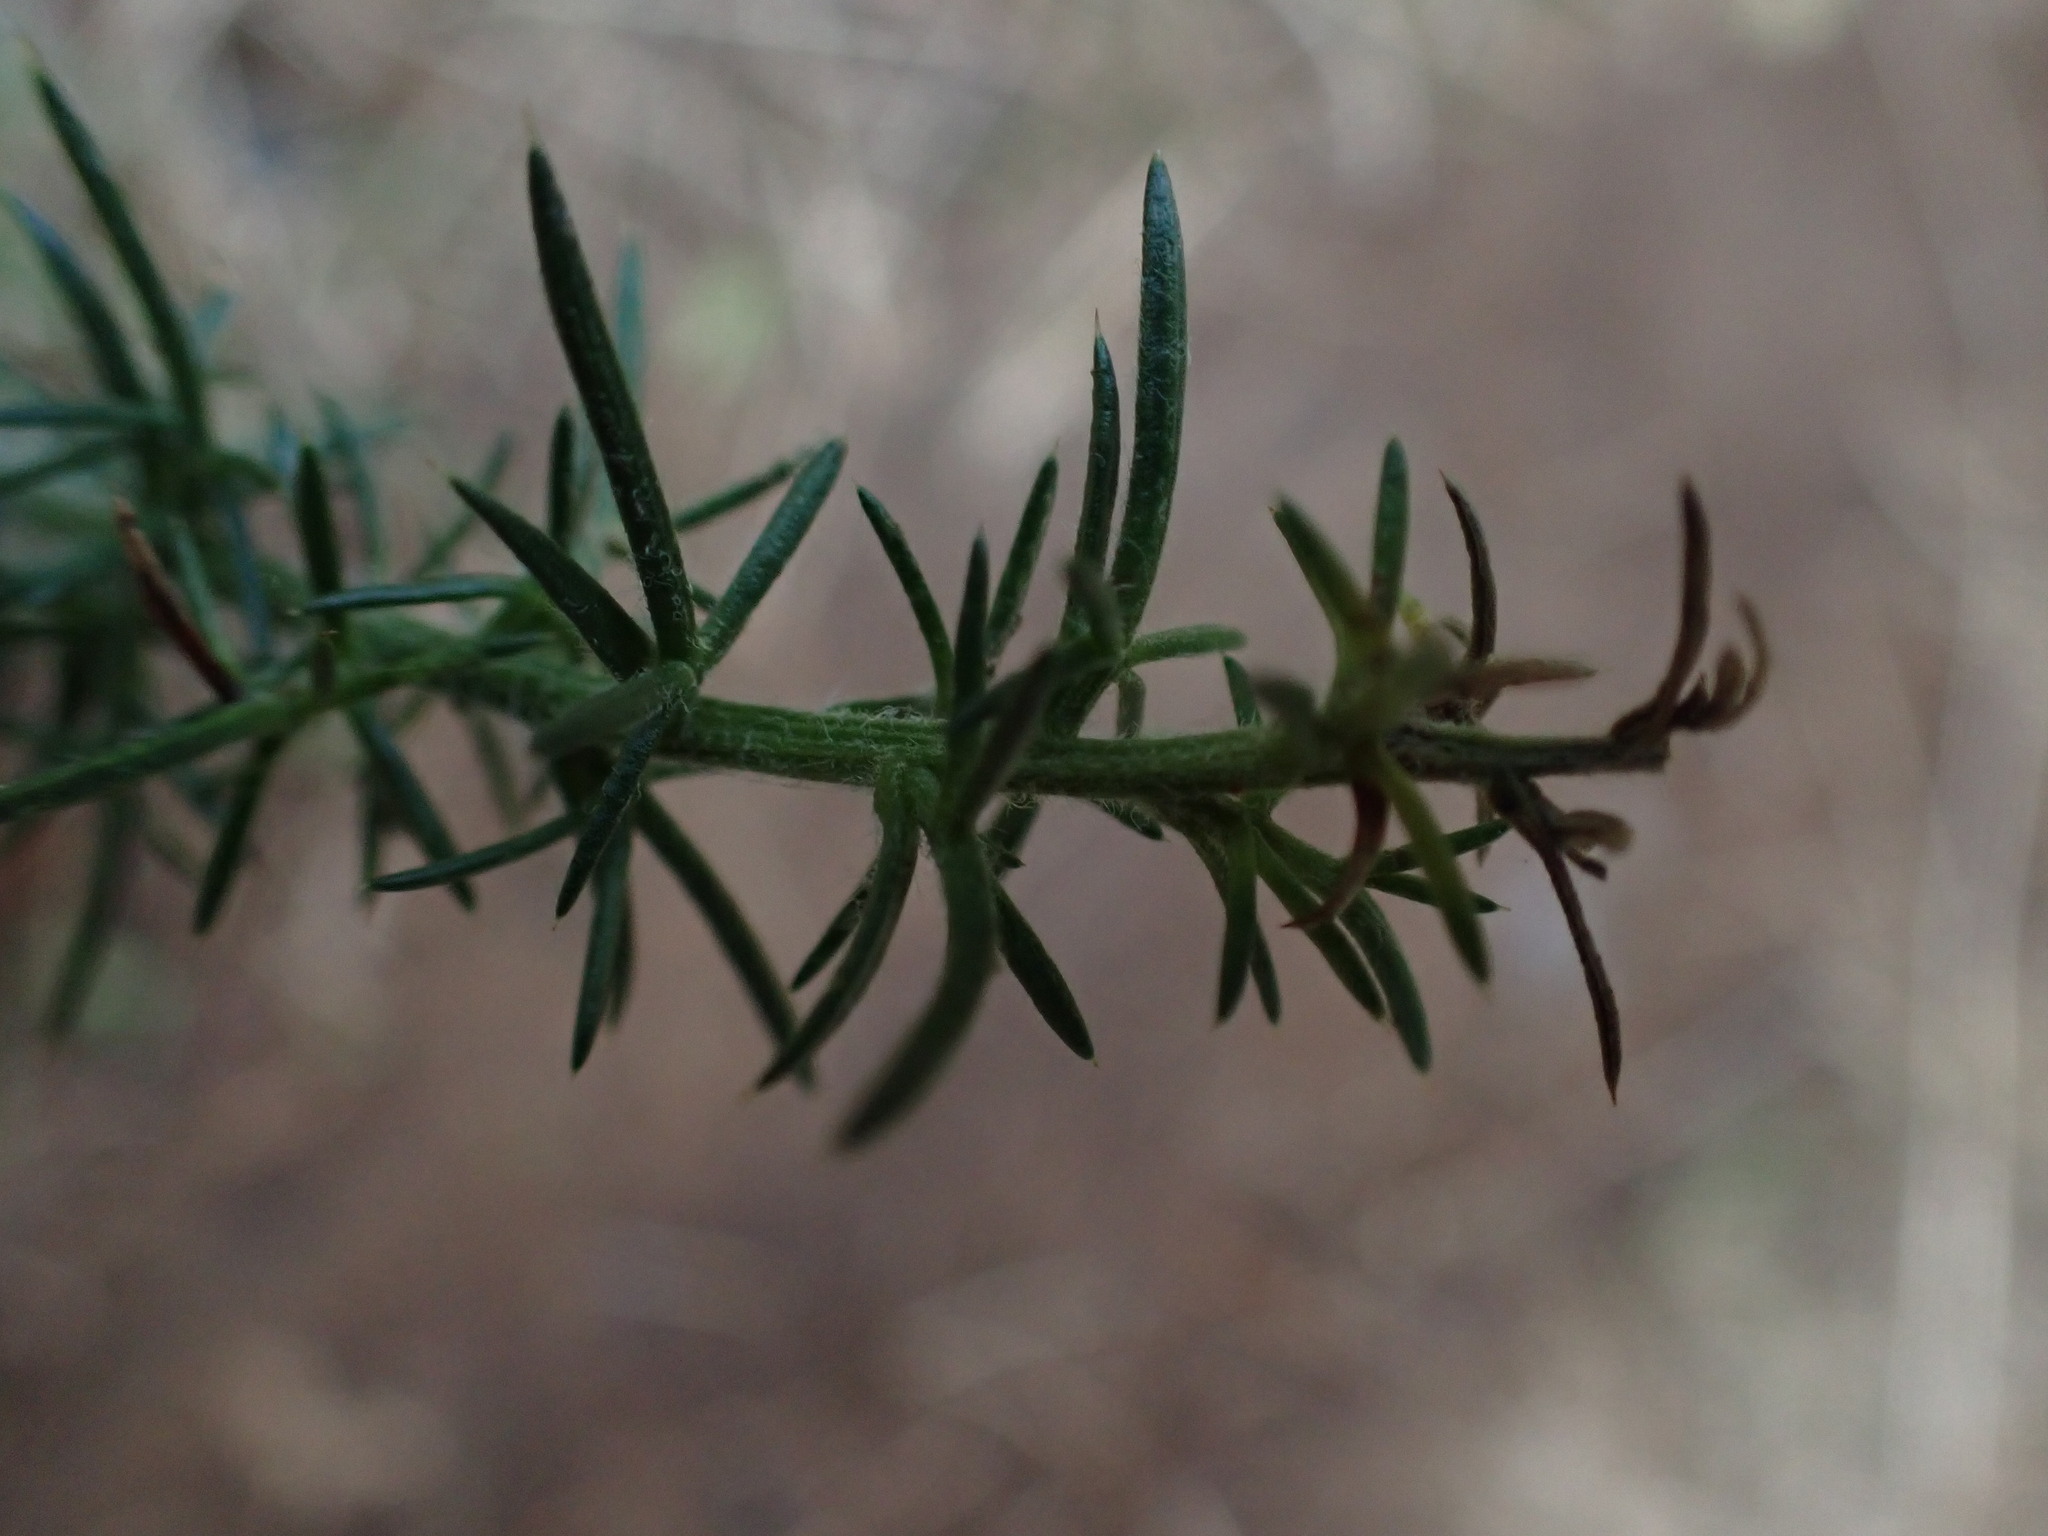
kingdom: Plantae
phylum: Tracheophyta
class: Magnoliopsida
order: Fabales
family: Fabaceae
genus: Ulex
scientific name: Ulex europaeus
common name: Common gorse
